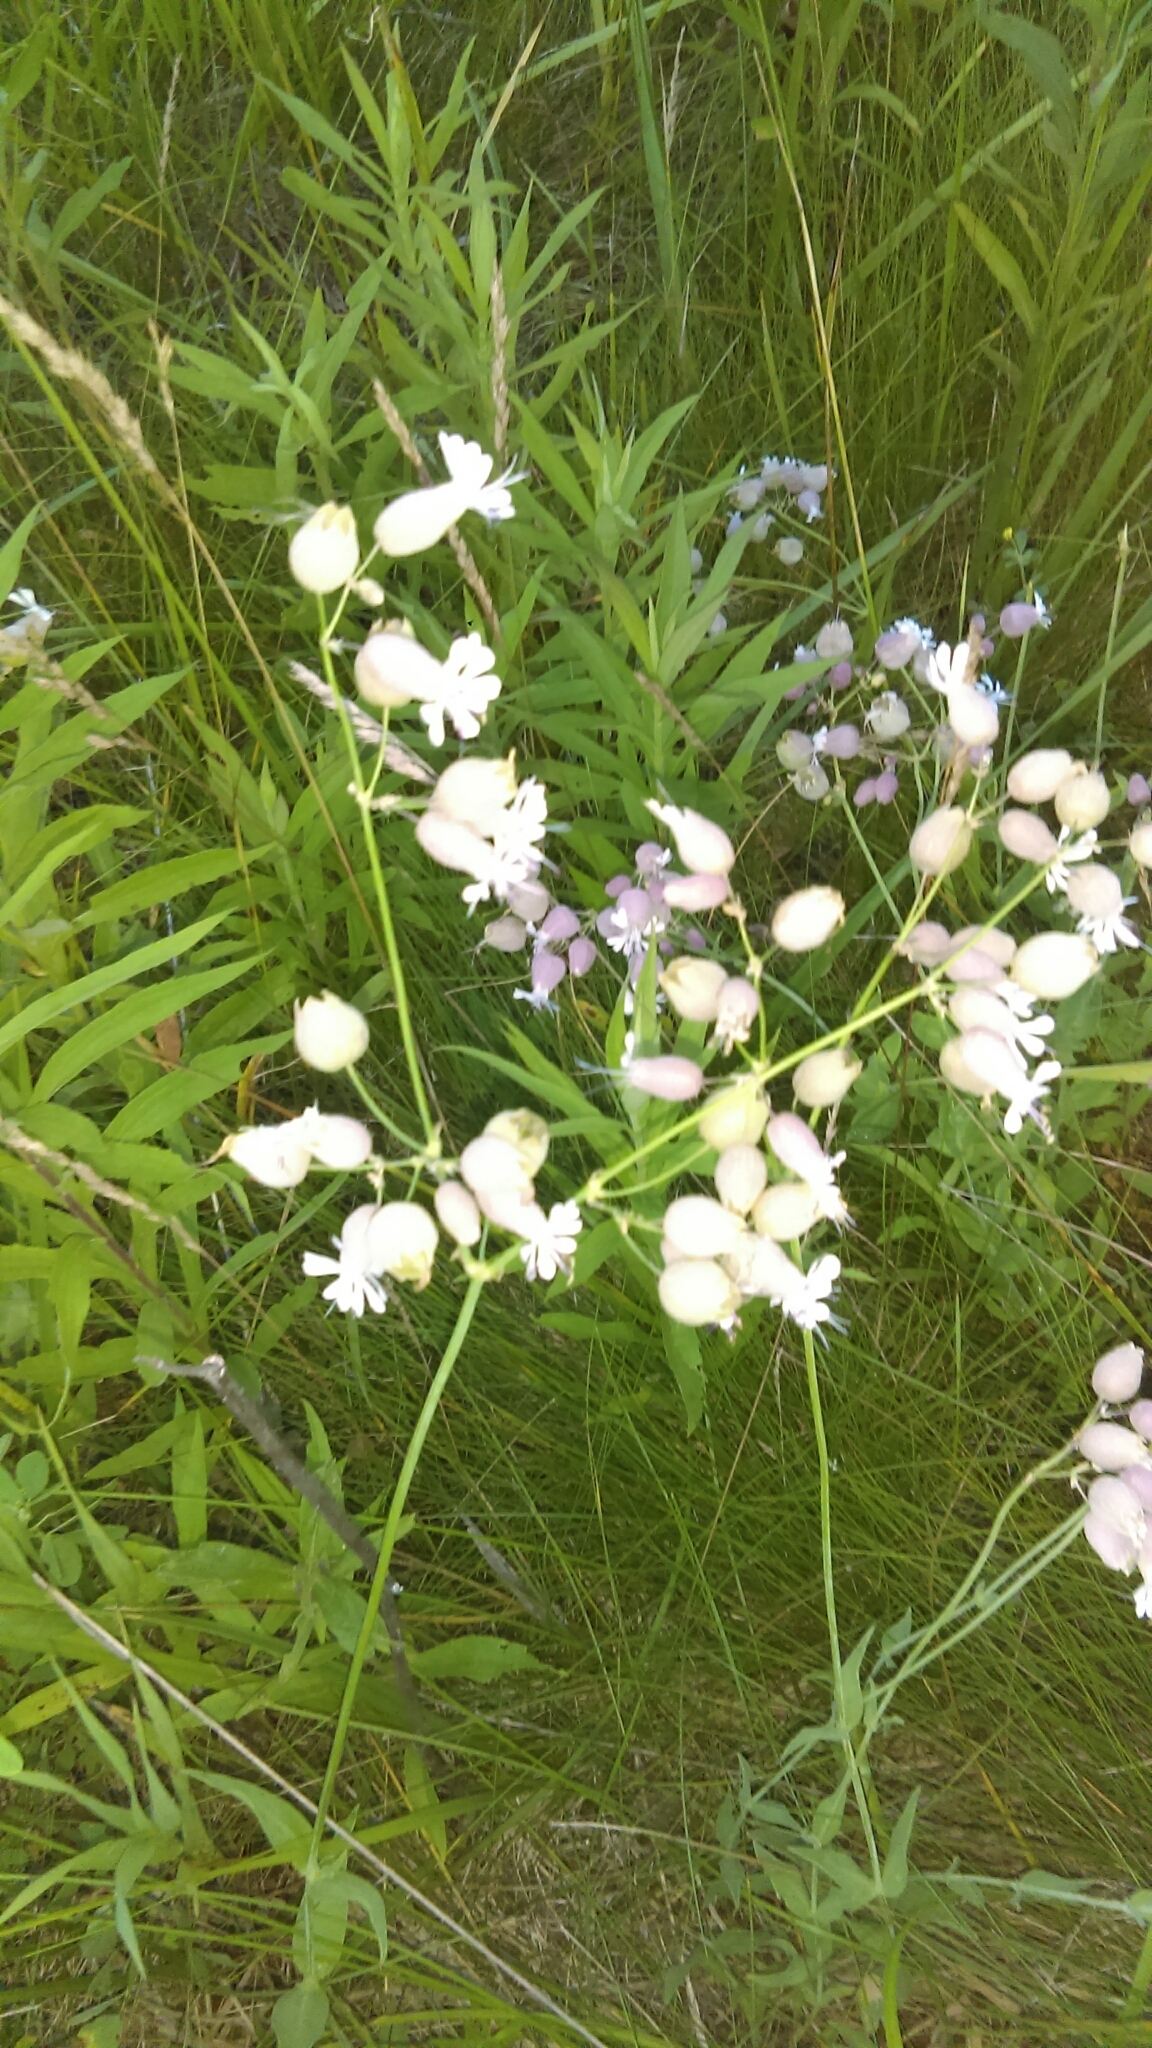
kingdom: Plantae
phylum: Tracheophyta
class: Magnoliopsida
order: Caryophyllales
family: Caryophyllaceae
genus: Silene
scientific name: Silene vulgaris
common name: Bladder campion
